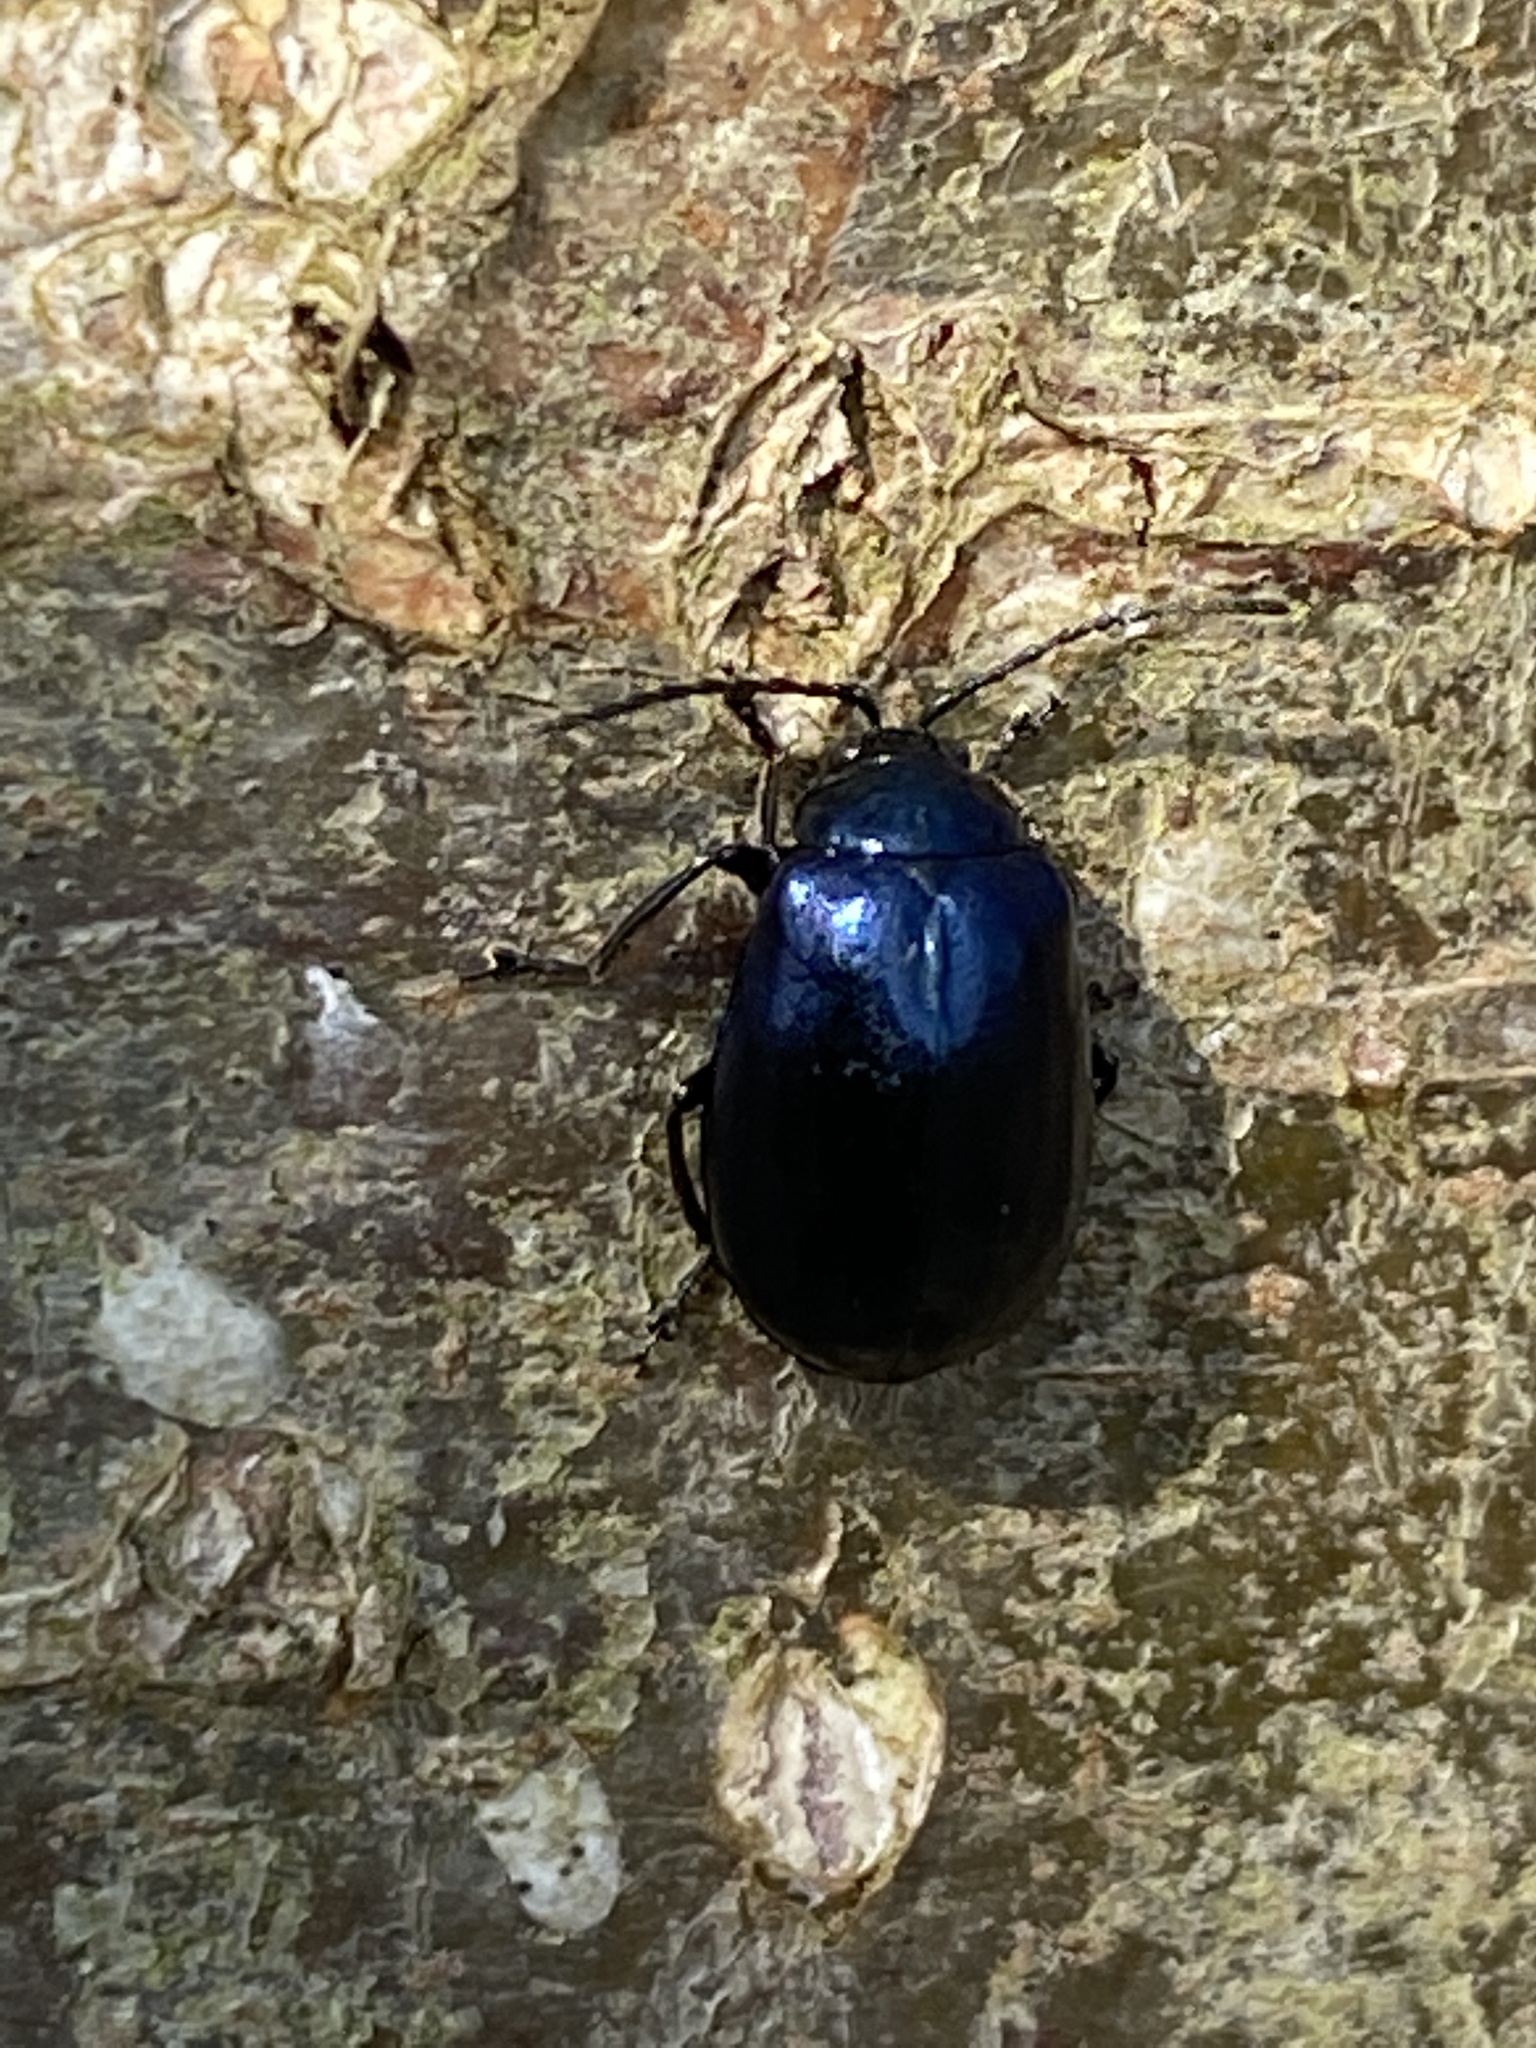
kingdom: Animalia
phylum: Arthropoda
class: Insecta
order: Coleoptera
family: Chrysomelidae
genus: Agelastica
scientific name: Agelastica alni
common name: Alder leaf beetle
